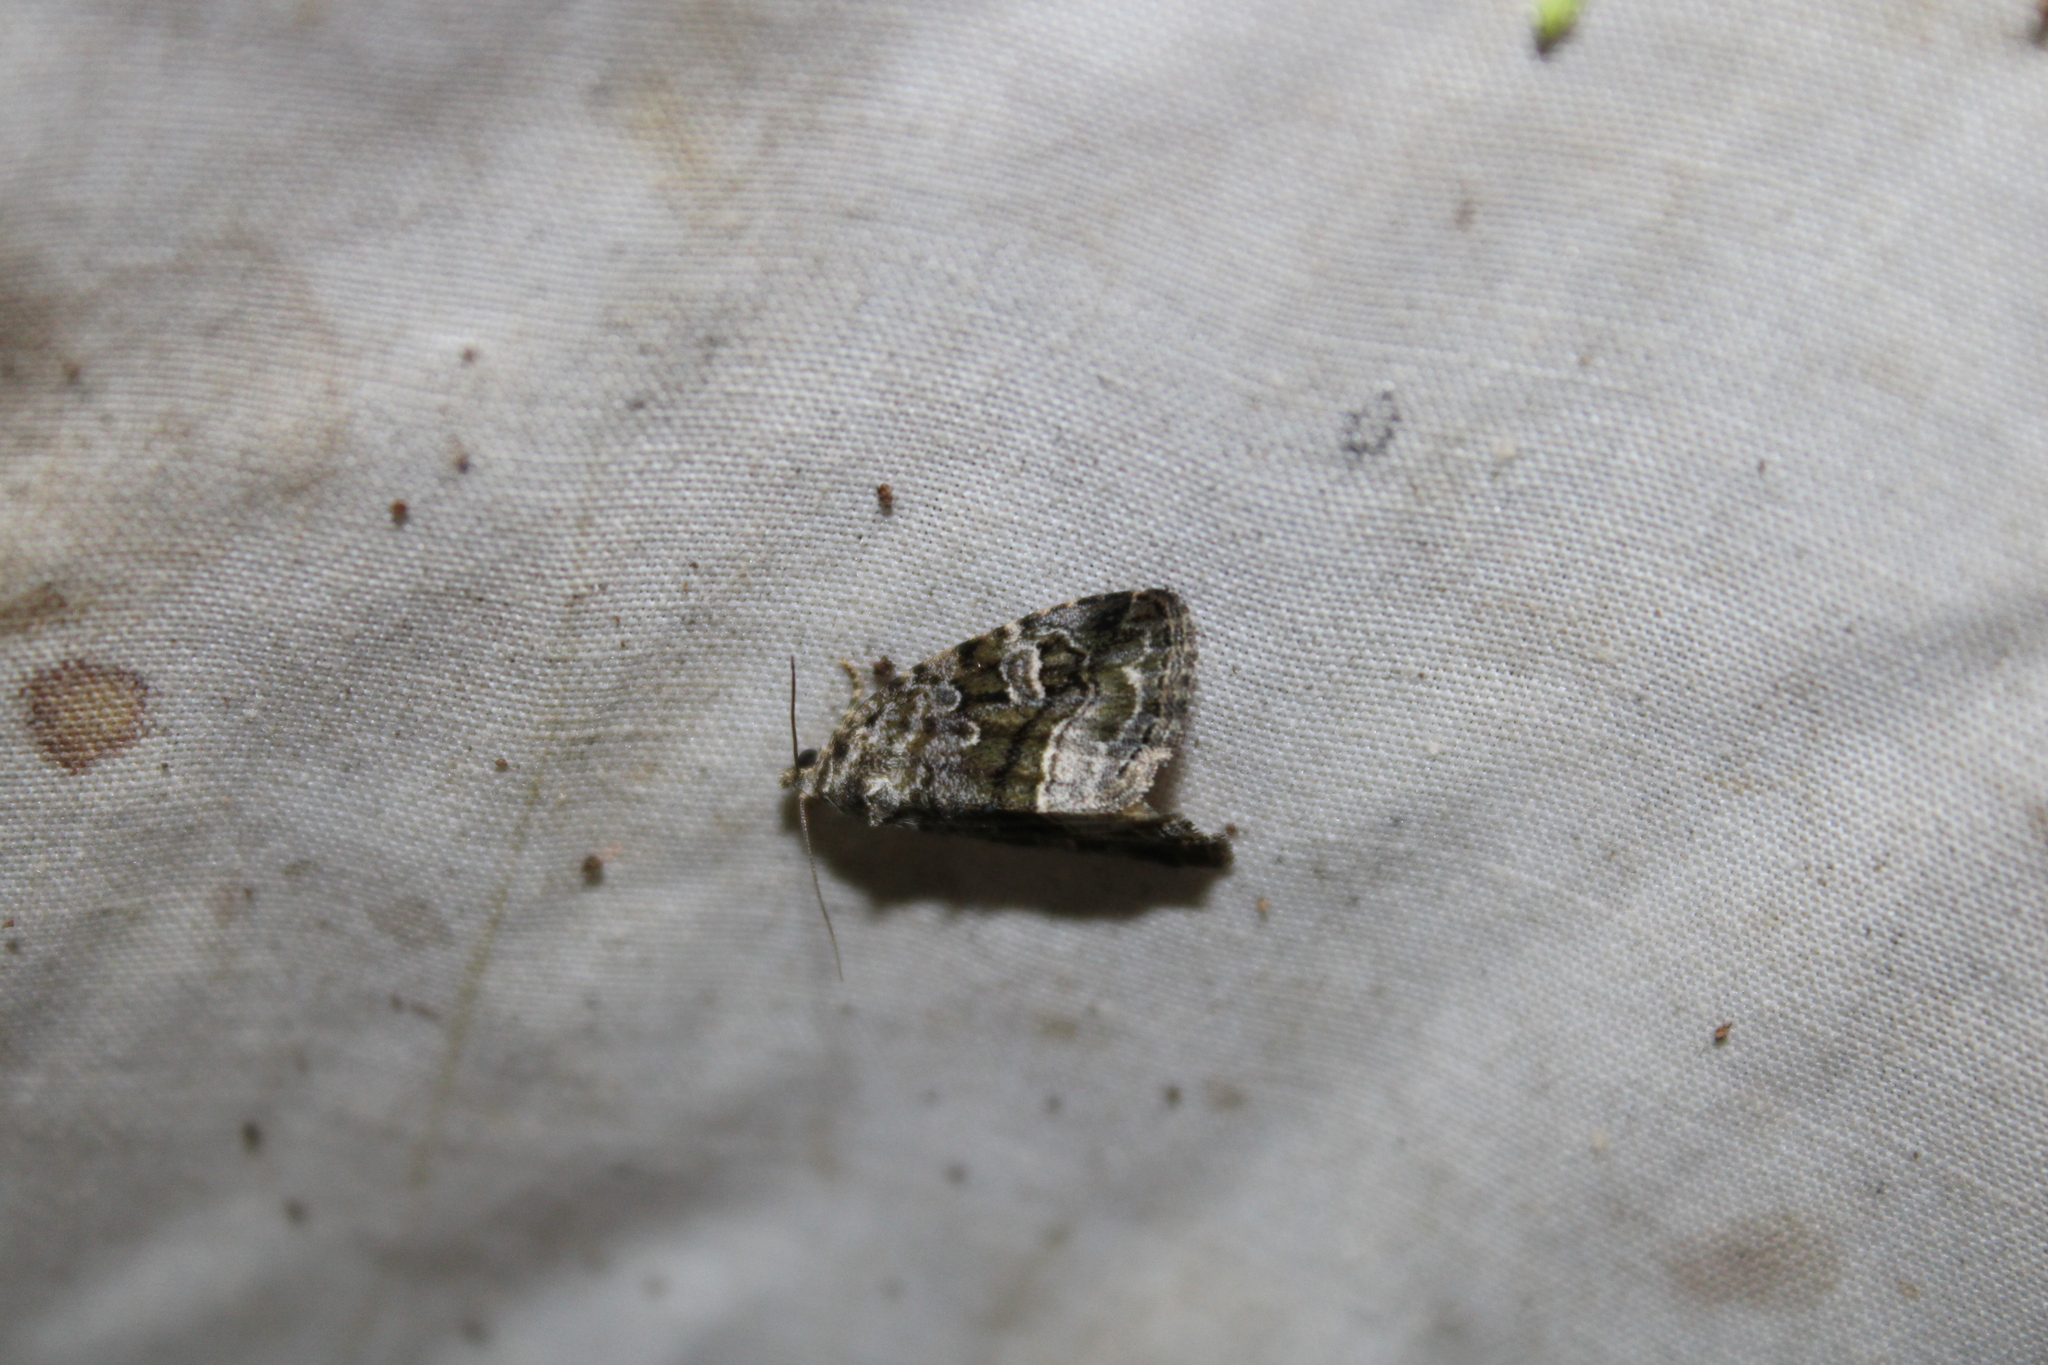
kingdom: Animalia
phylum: Arthropoda
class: Insecta
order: Lepidoptera
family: Noctuidae
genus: Protodeltote
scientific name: Protodeltote muscosula
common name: Large mossy glyph
